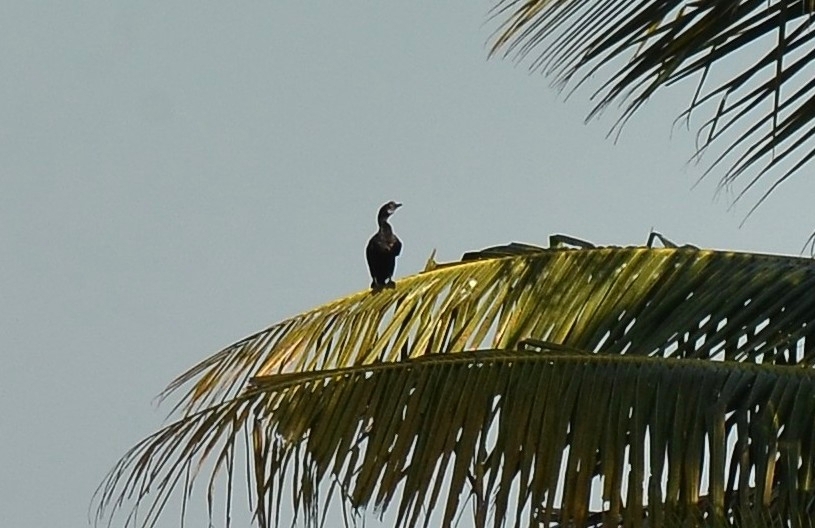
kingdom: Animalia
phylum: Chordata
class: Aves
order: Suliformes
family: Phalacrocoracidae
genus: Microcarbo
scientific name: Microcarbo niger
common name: Little cormorant
